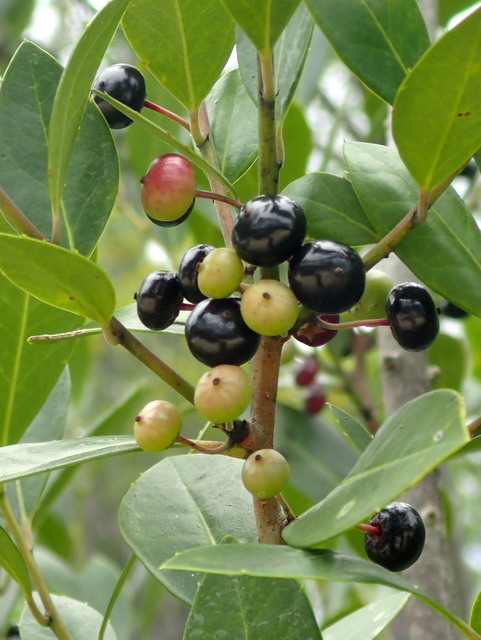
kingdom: Plantae
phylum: Tracheophyta
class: Magnoliopsida
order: Aquifoliales
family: Aquifoliaceae
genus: Ilex
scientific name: Ilex glabra
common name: Bitter gallberry
